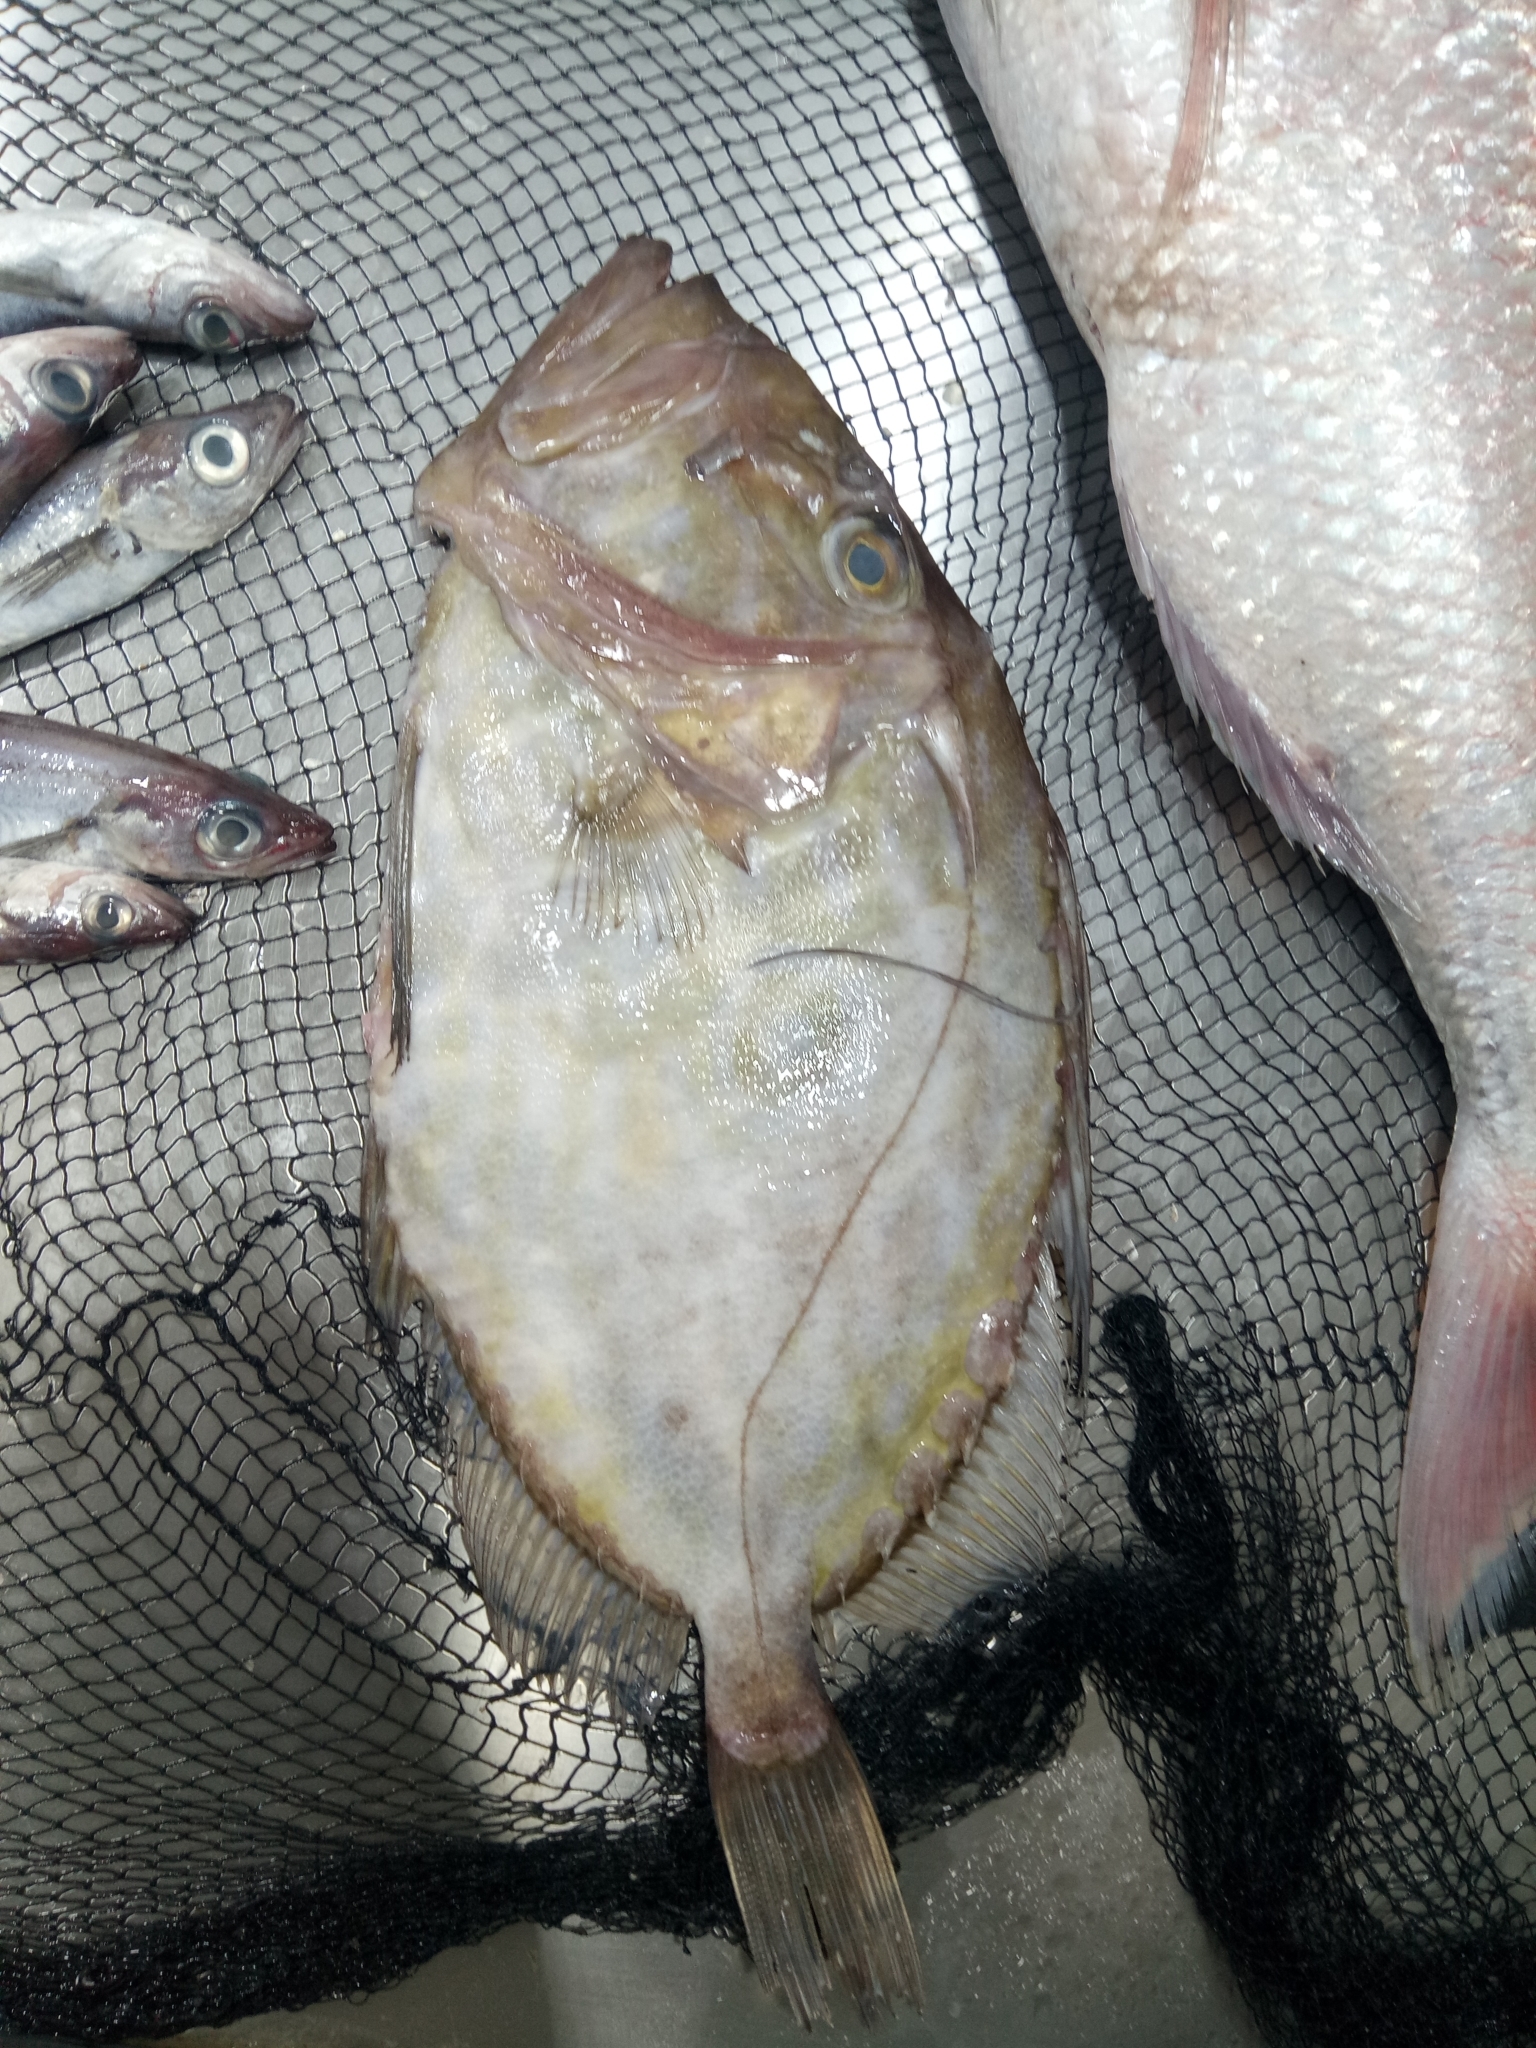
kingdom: Animalia
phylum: Chordata
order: Zeiformes
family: Zeidae
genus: Zeus
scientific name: Zeus faber
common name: John dory
